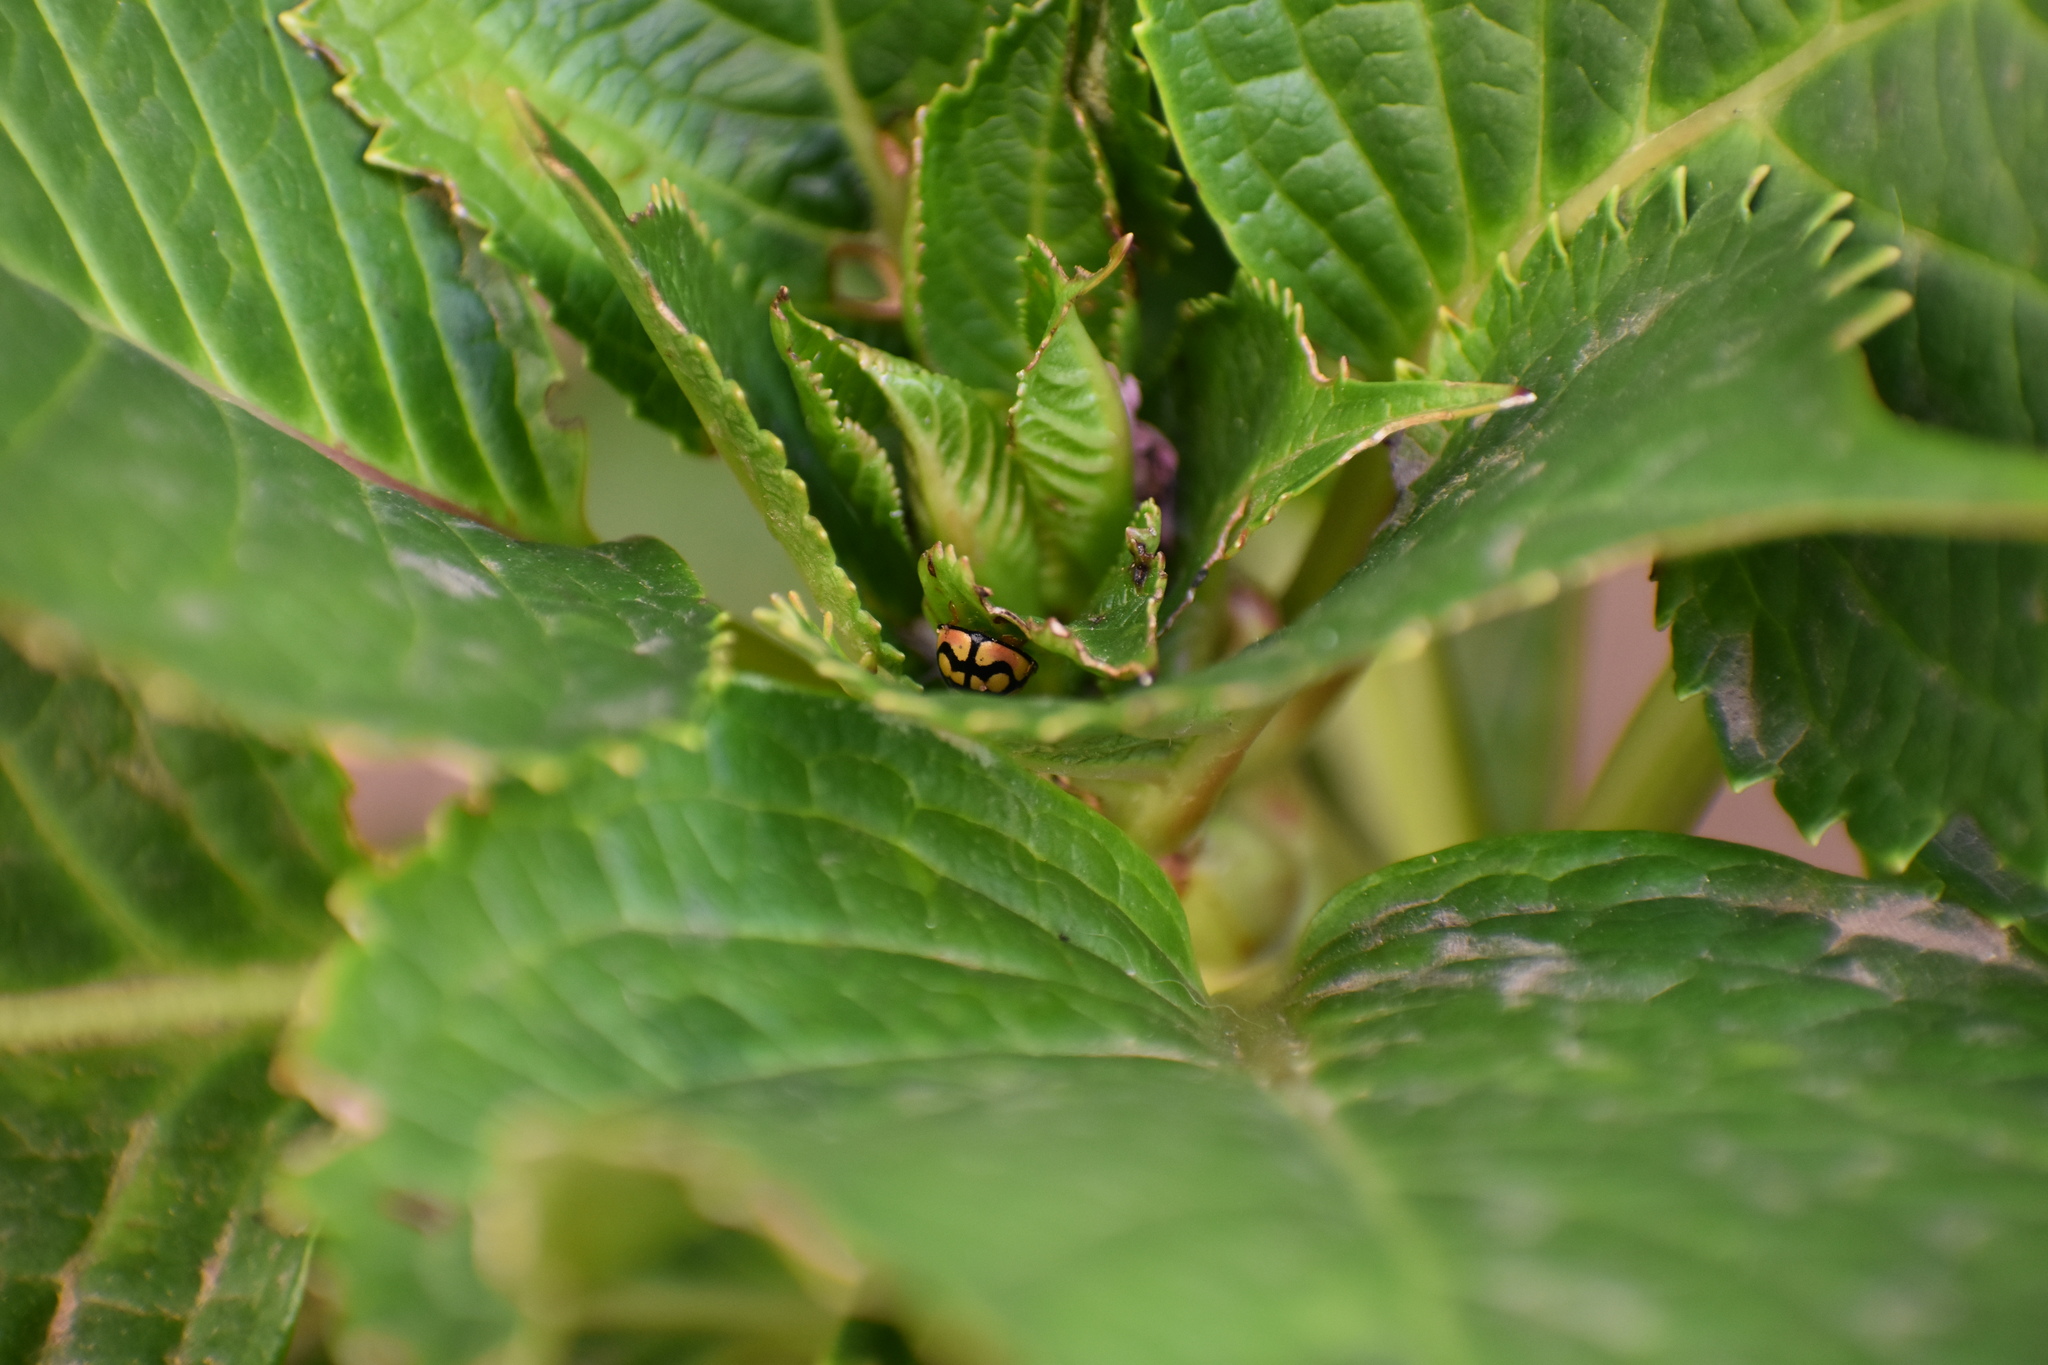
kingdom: Animalia
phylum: Arthropoda
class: Insecta
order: Coleoptera
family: Coccinellidae
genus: Cheilomenes
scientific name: Cheilomenes sulphurea
